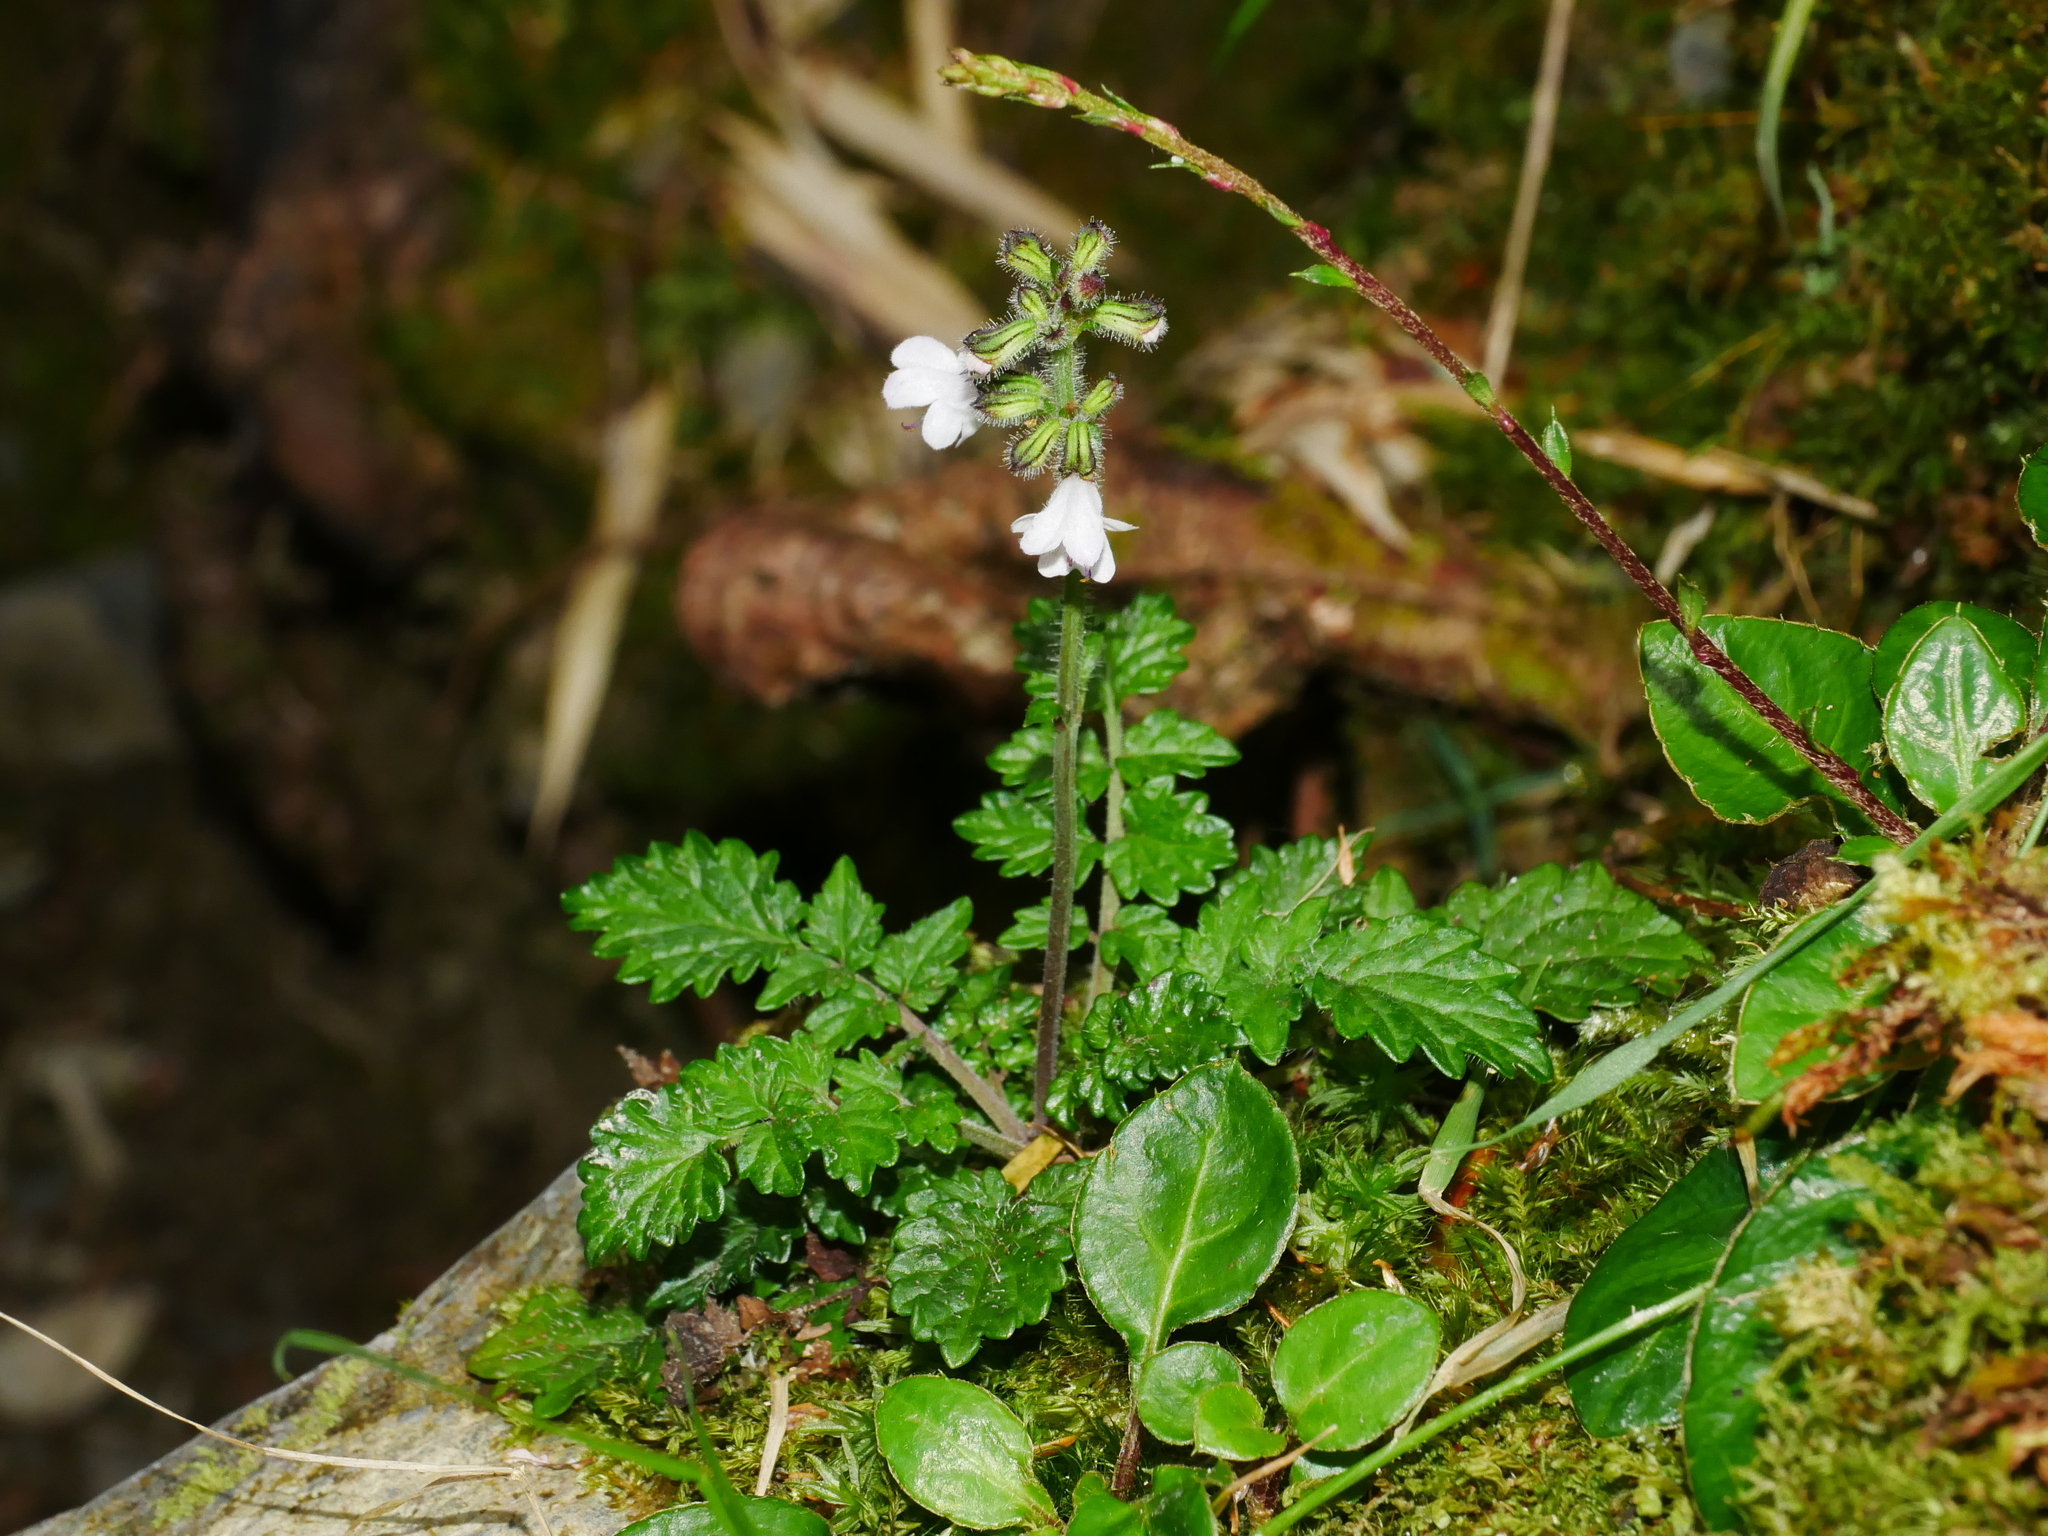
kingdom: Plantae
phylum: Tracheophyta
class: Magnoliopsida
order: Lamiales
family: Lamiaceae
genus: Salvia
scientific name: Salvia scapiformis
